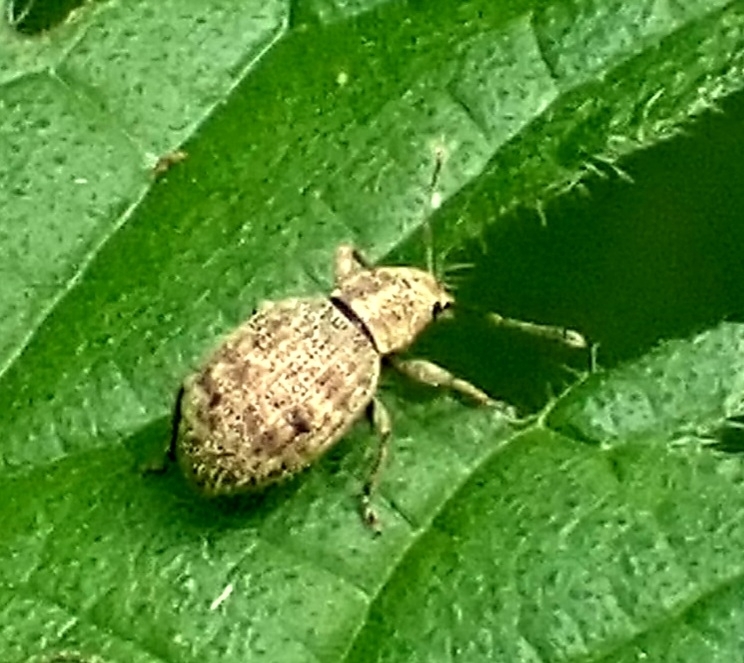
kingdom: Animalia
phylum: Arthropoda
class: Insecta
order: Coleoptera
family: Curculionidae
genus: Sciaphilus
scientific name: Sciaphilus asperatus
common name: Weevil
